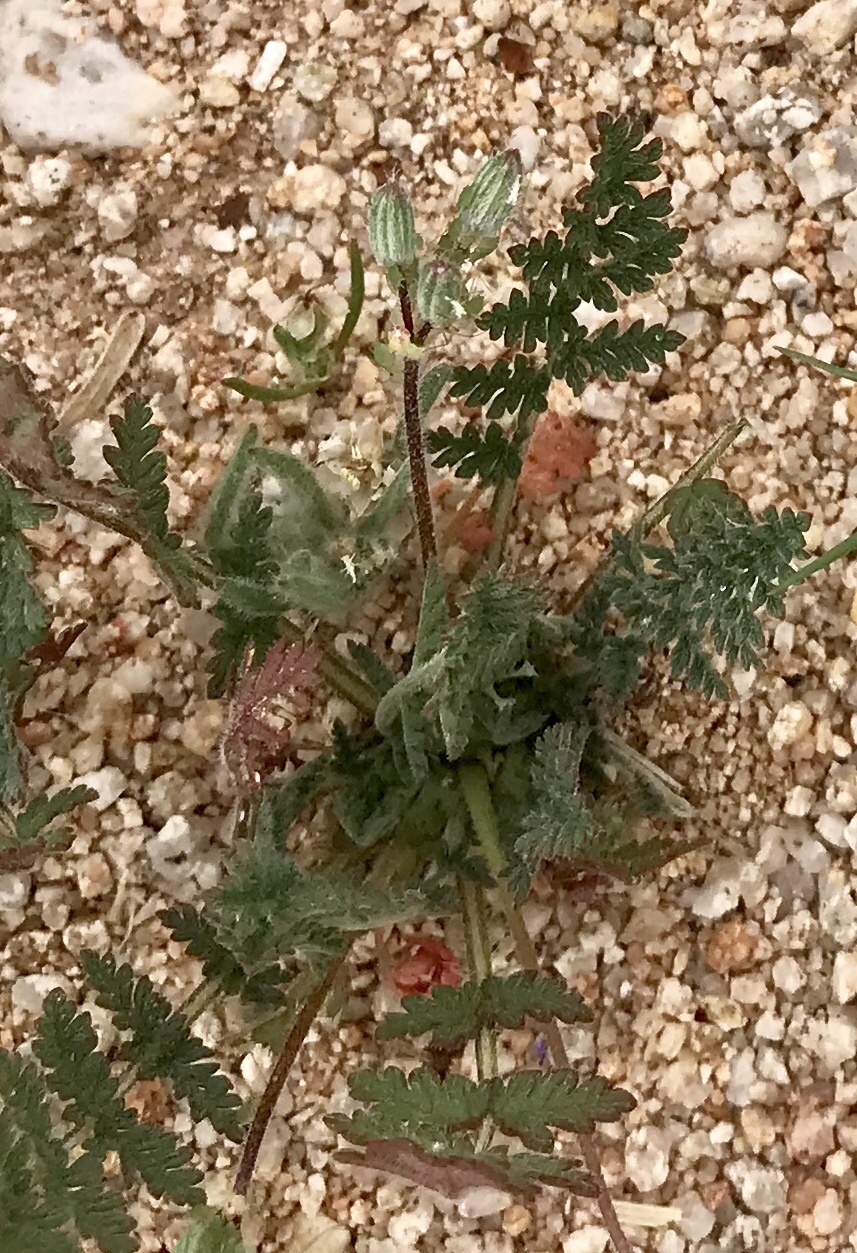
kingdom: Plantae
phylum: Tracheophyta
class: Magnoliopsida
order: Geraniales
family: Geraniaceae
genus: Erodium
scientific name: Erodium cicutarium
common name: Common stork's-bill
